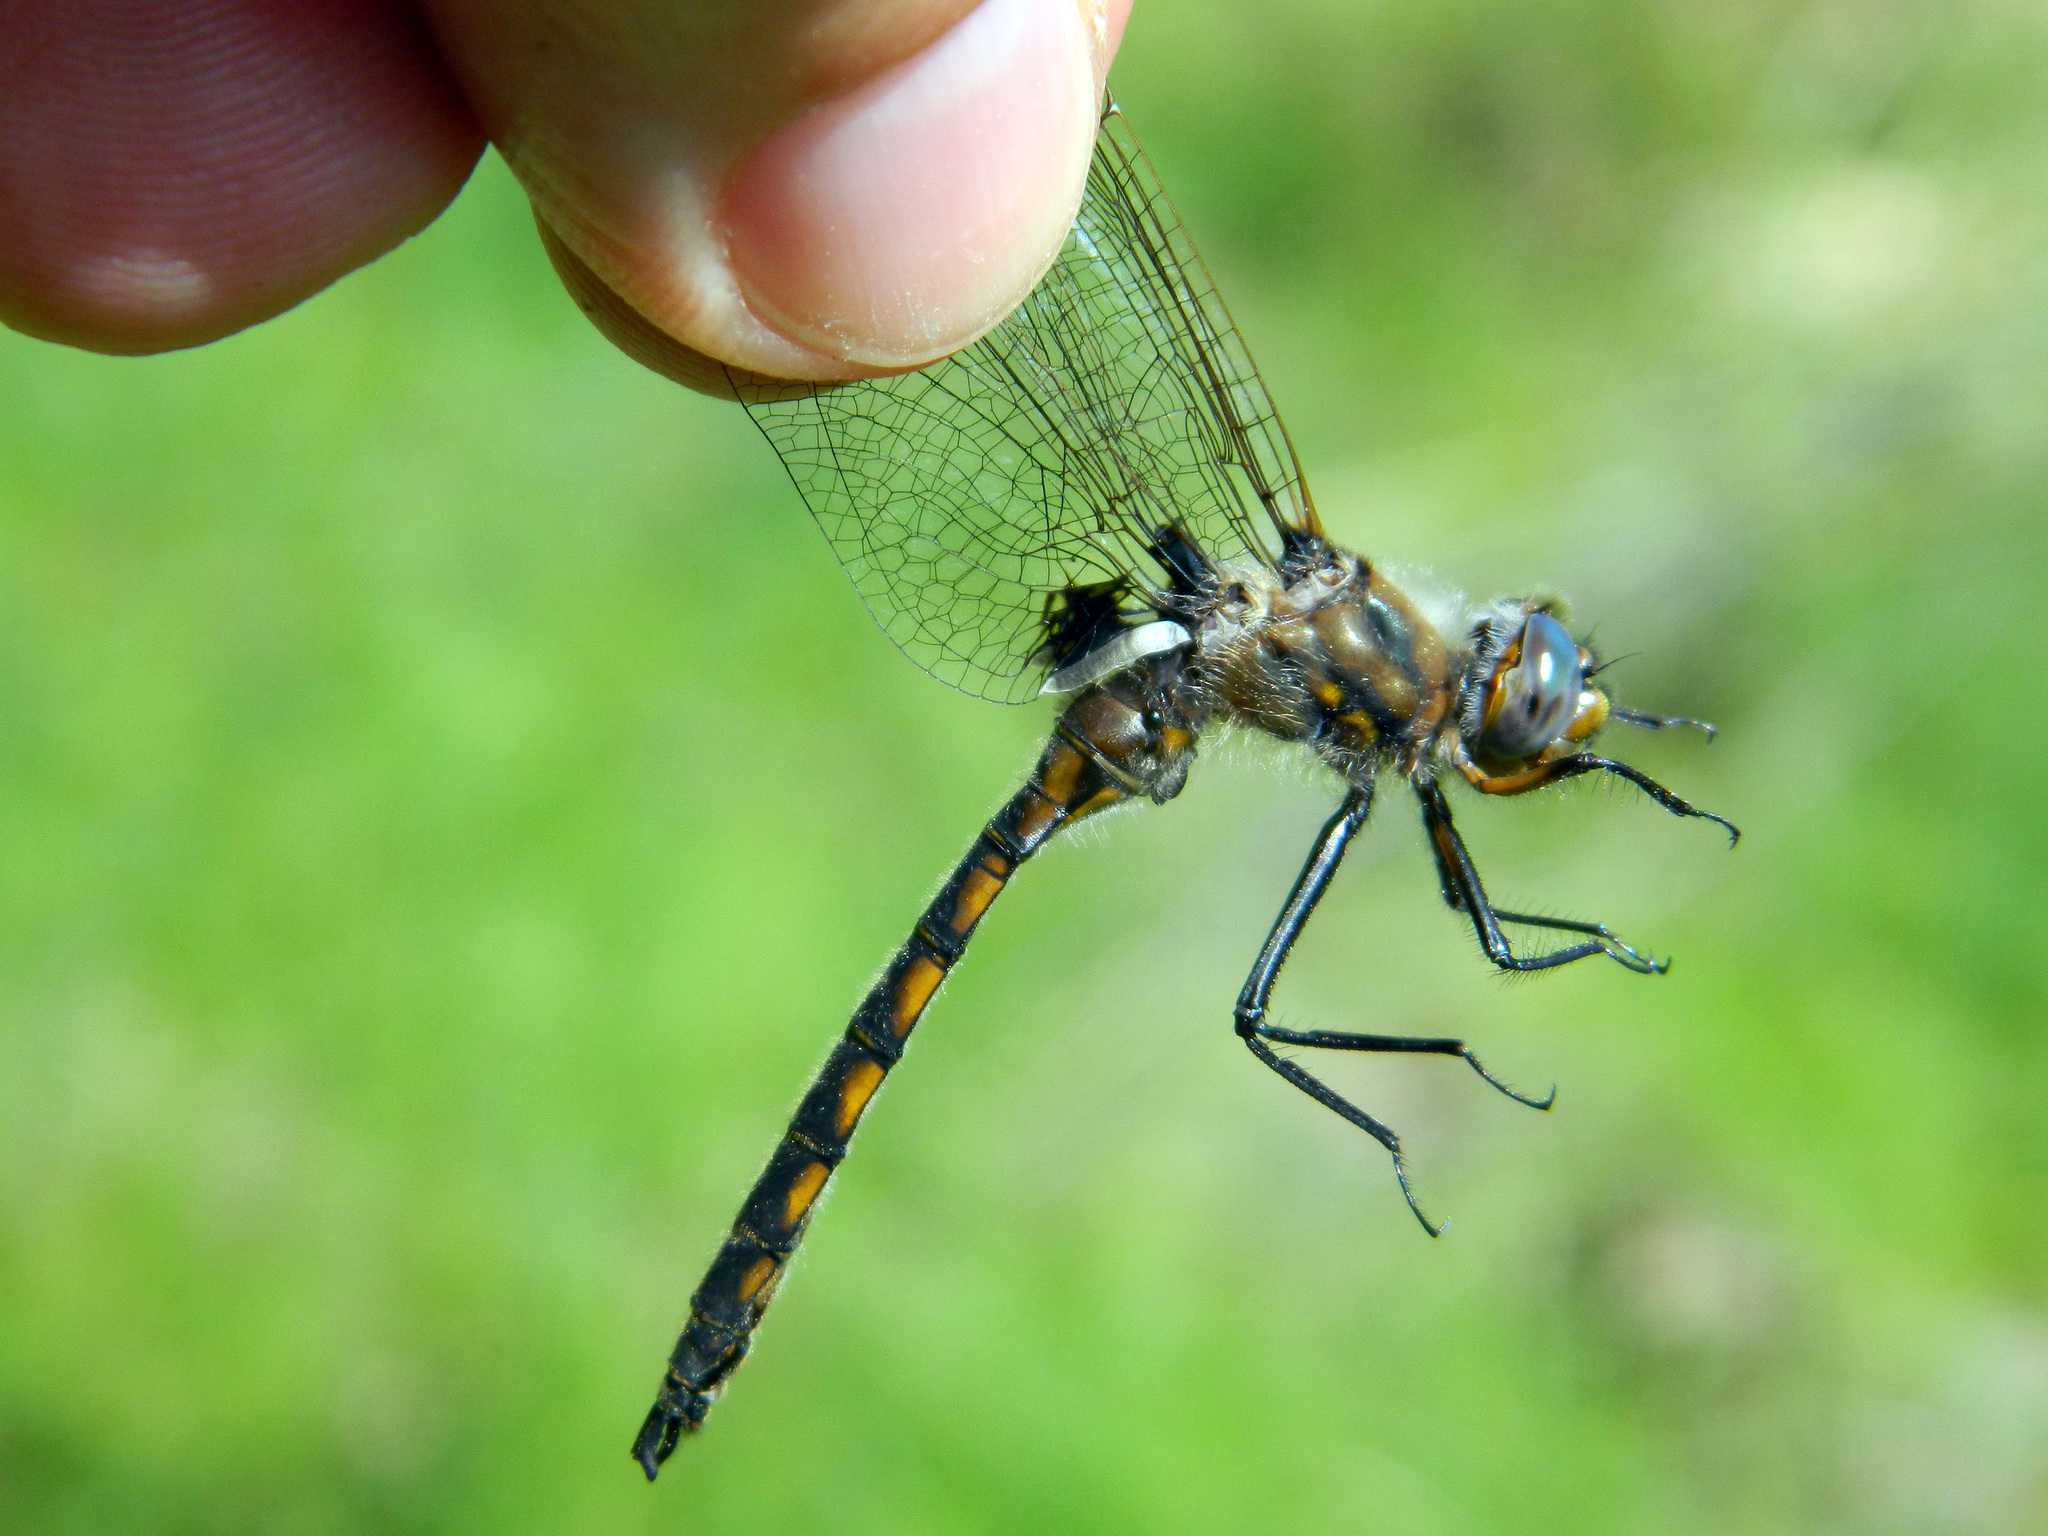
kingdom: Animalia
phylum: Arthropoda
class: Insecta
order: Odonata
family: Corduliidae
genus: Epitheca
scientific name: Epitheca canis
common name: Beaverpond baskettail
